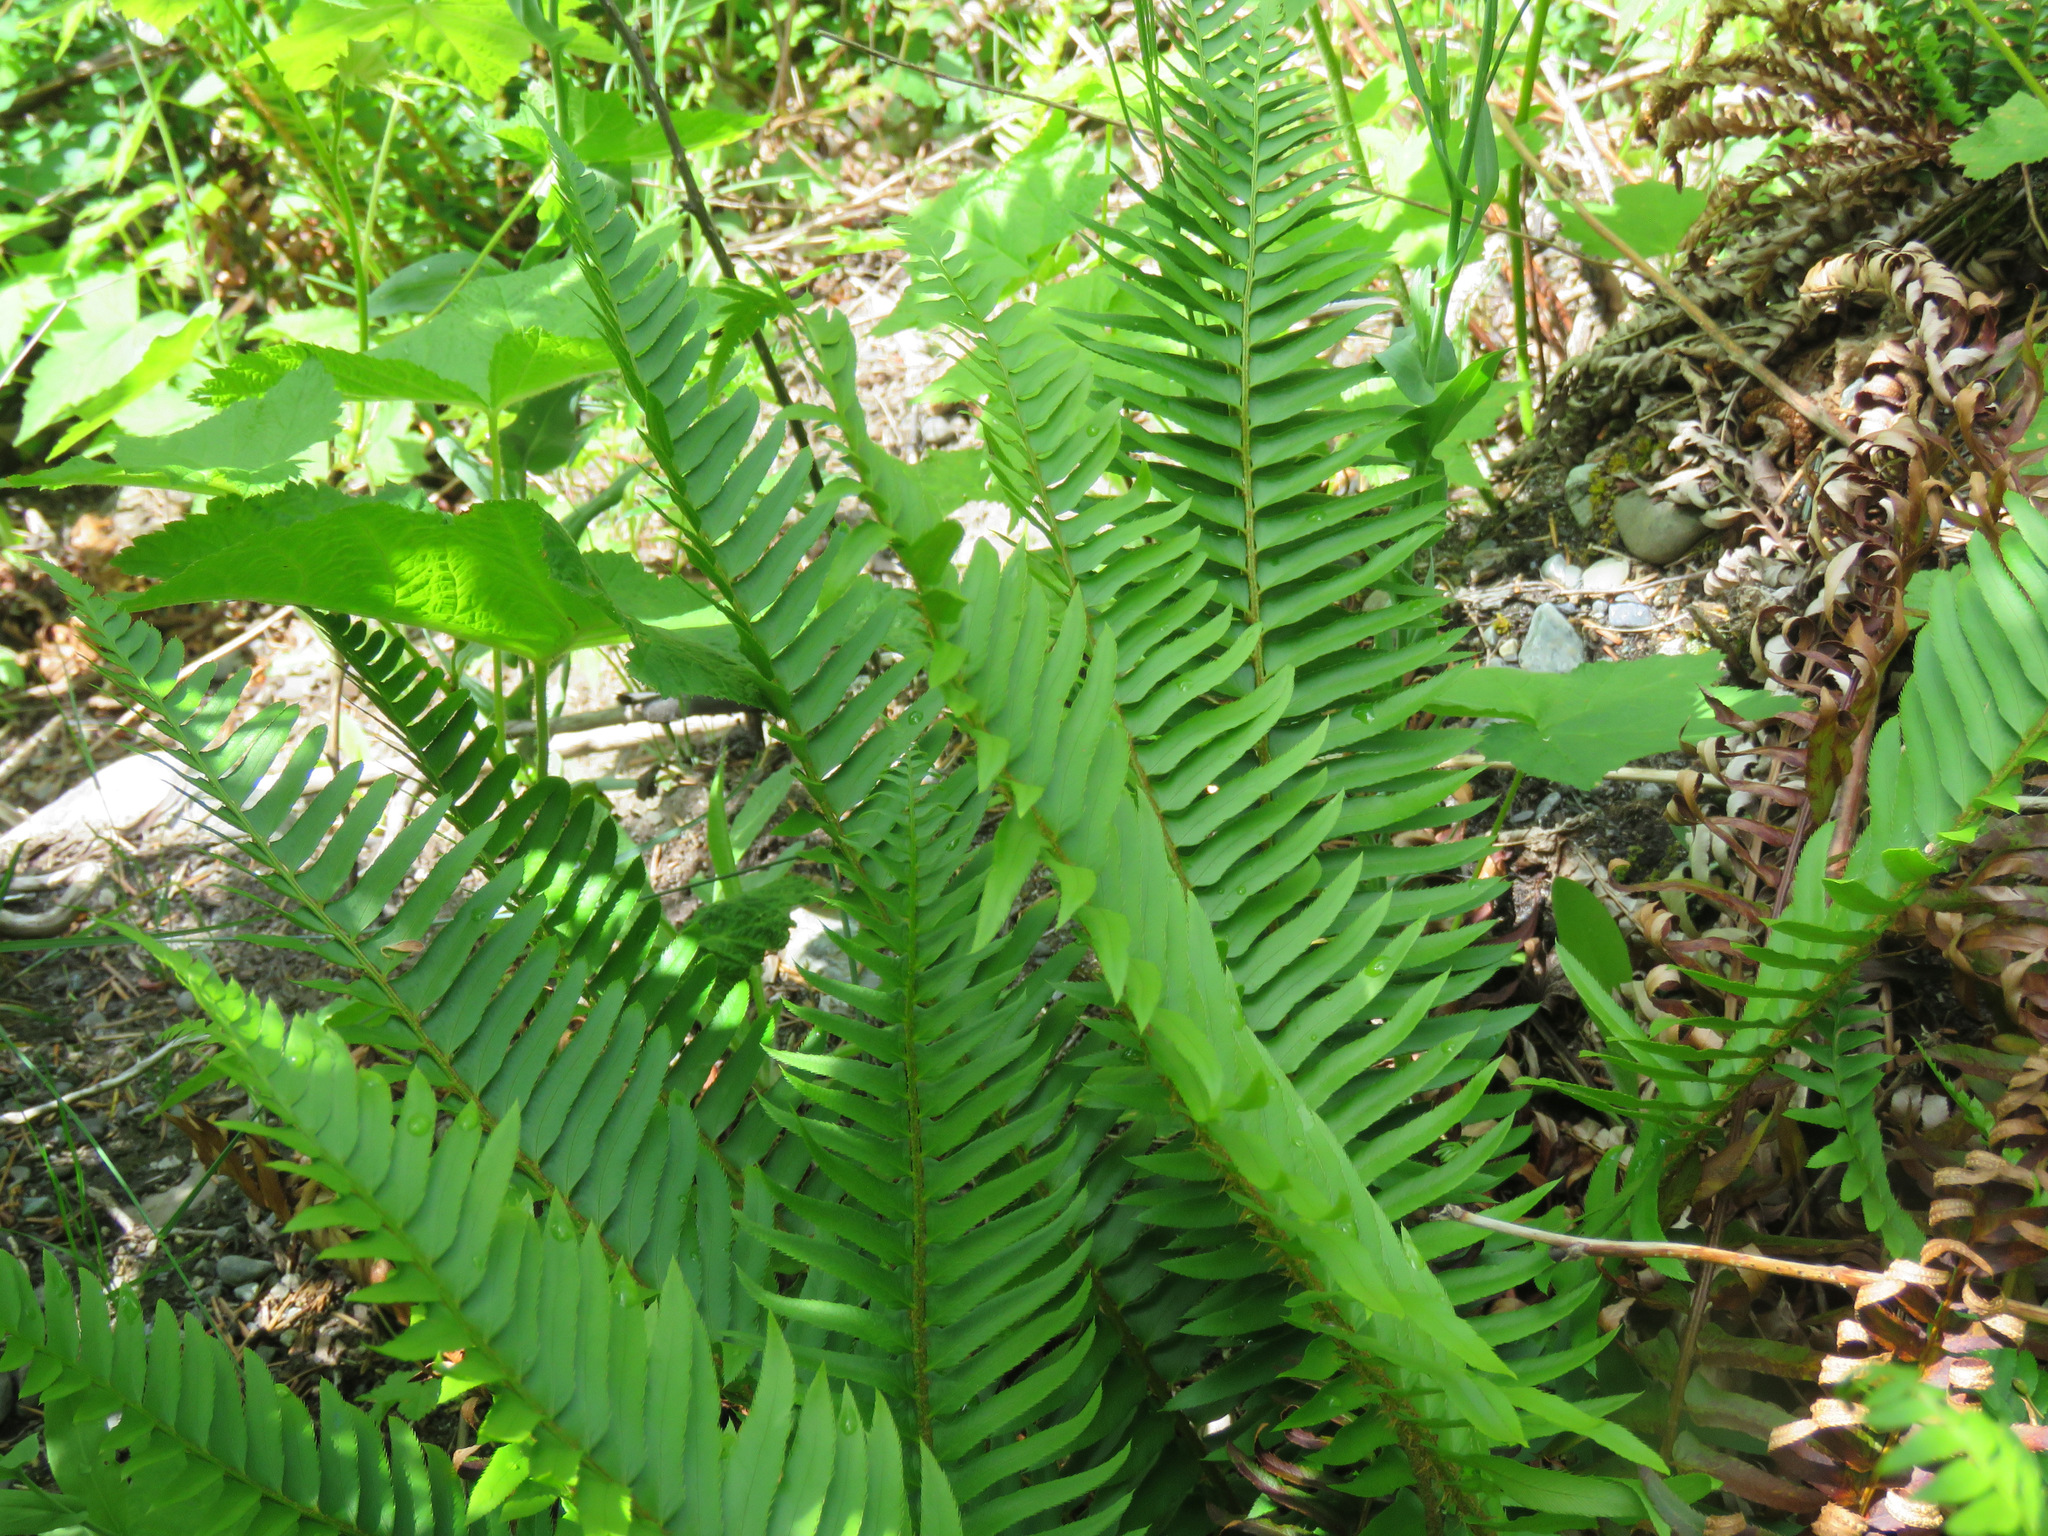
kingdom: Plantae
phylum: Tracheophyta
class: Polypodiopsida
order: Polypodiales
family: Dryopteridaceae
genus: Polystichum
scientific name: Polystichum munitum
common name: Western sword-fern
